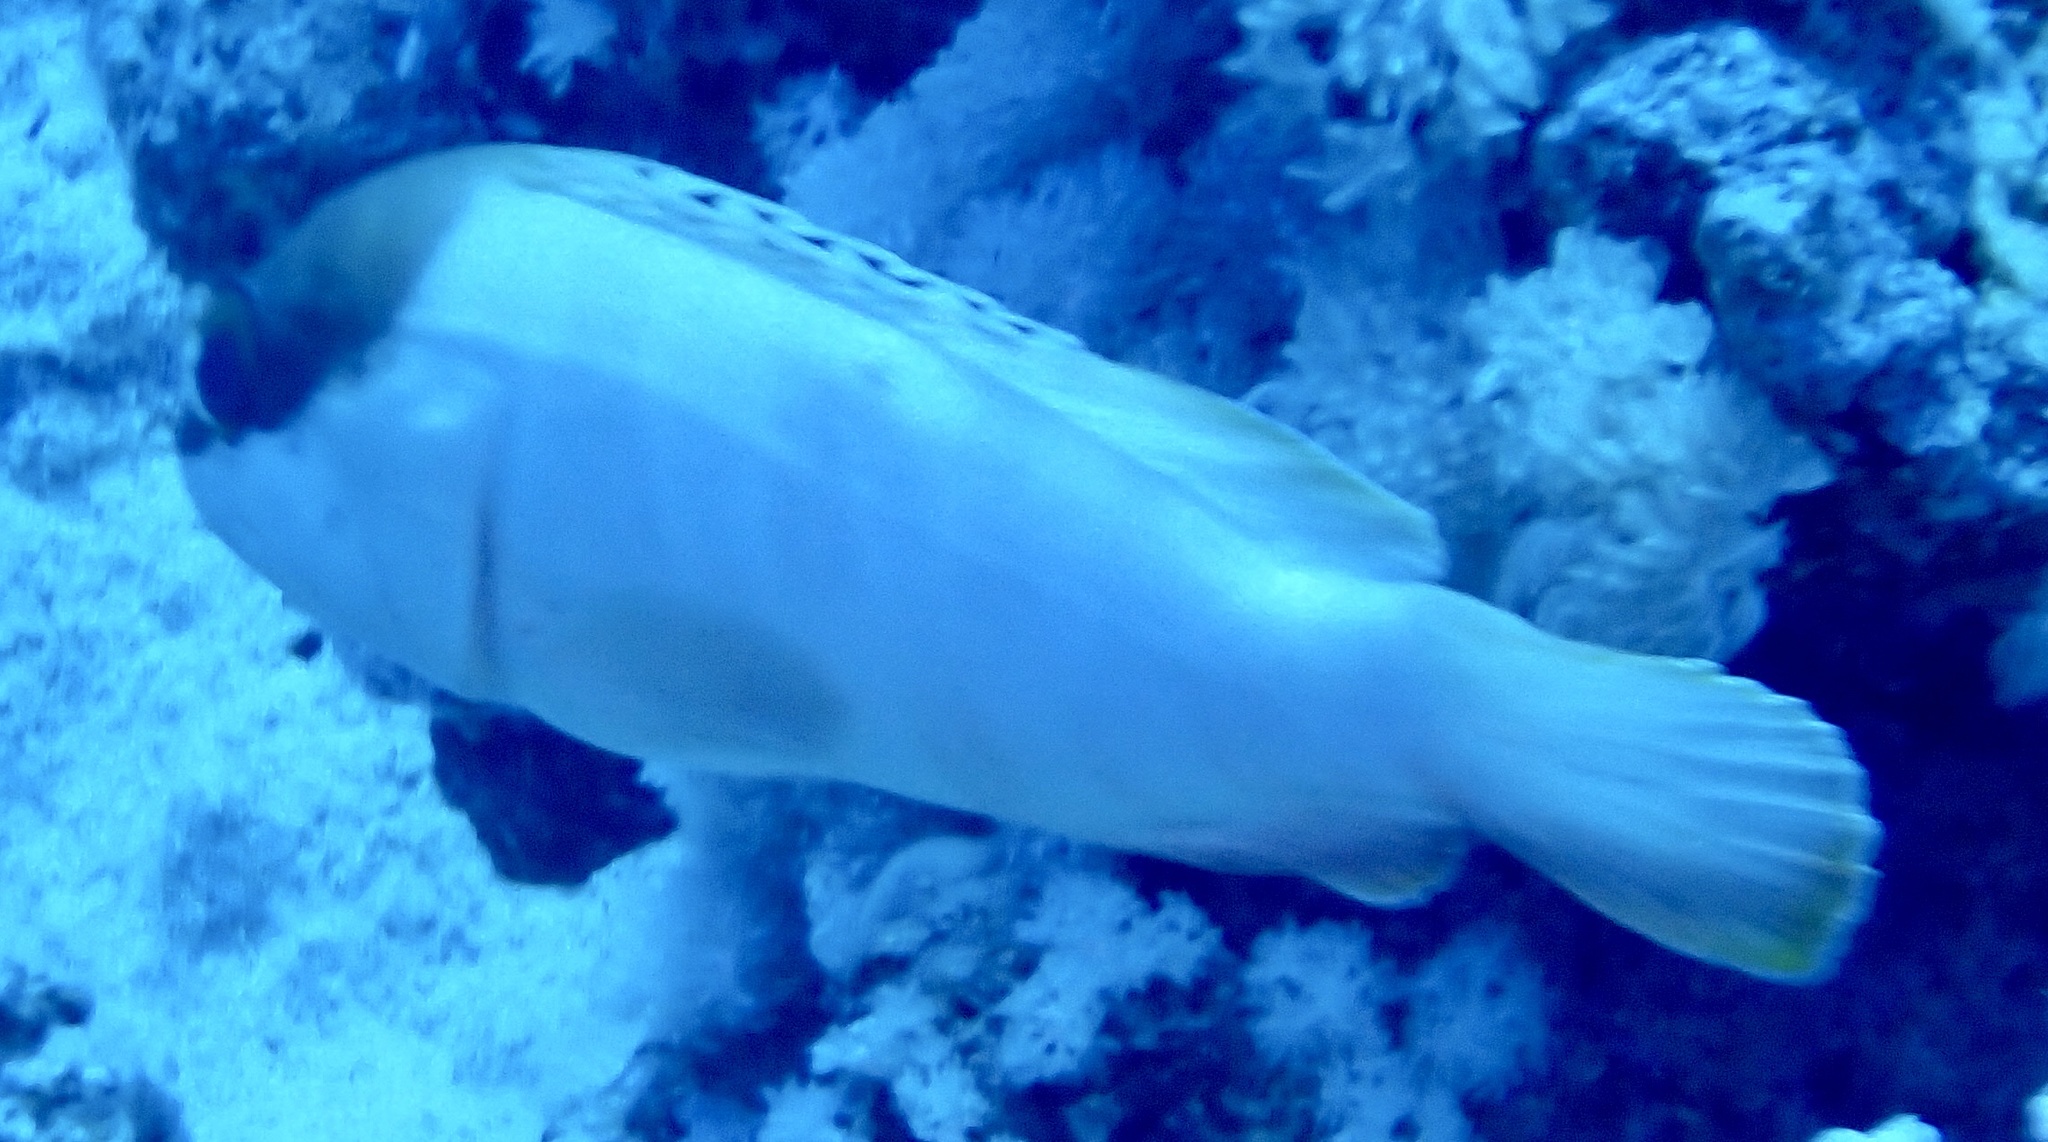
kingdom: Animalia
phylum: Chordata
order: Perciformes
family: Serranidae
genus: Epinephelus
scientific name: Epinephelus fasciatus
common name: Blacktip grouper
